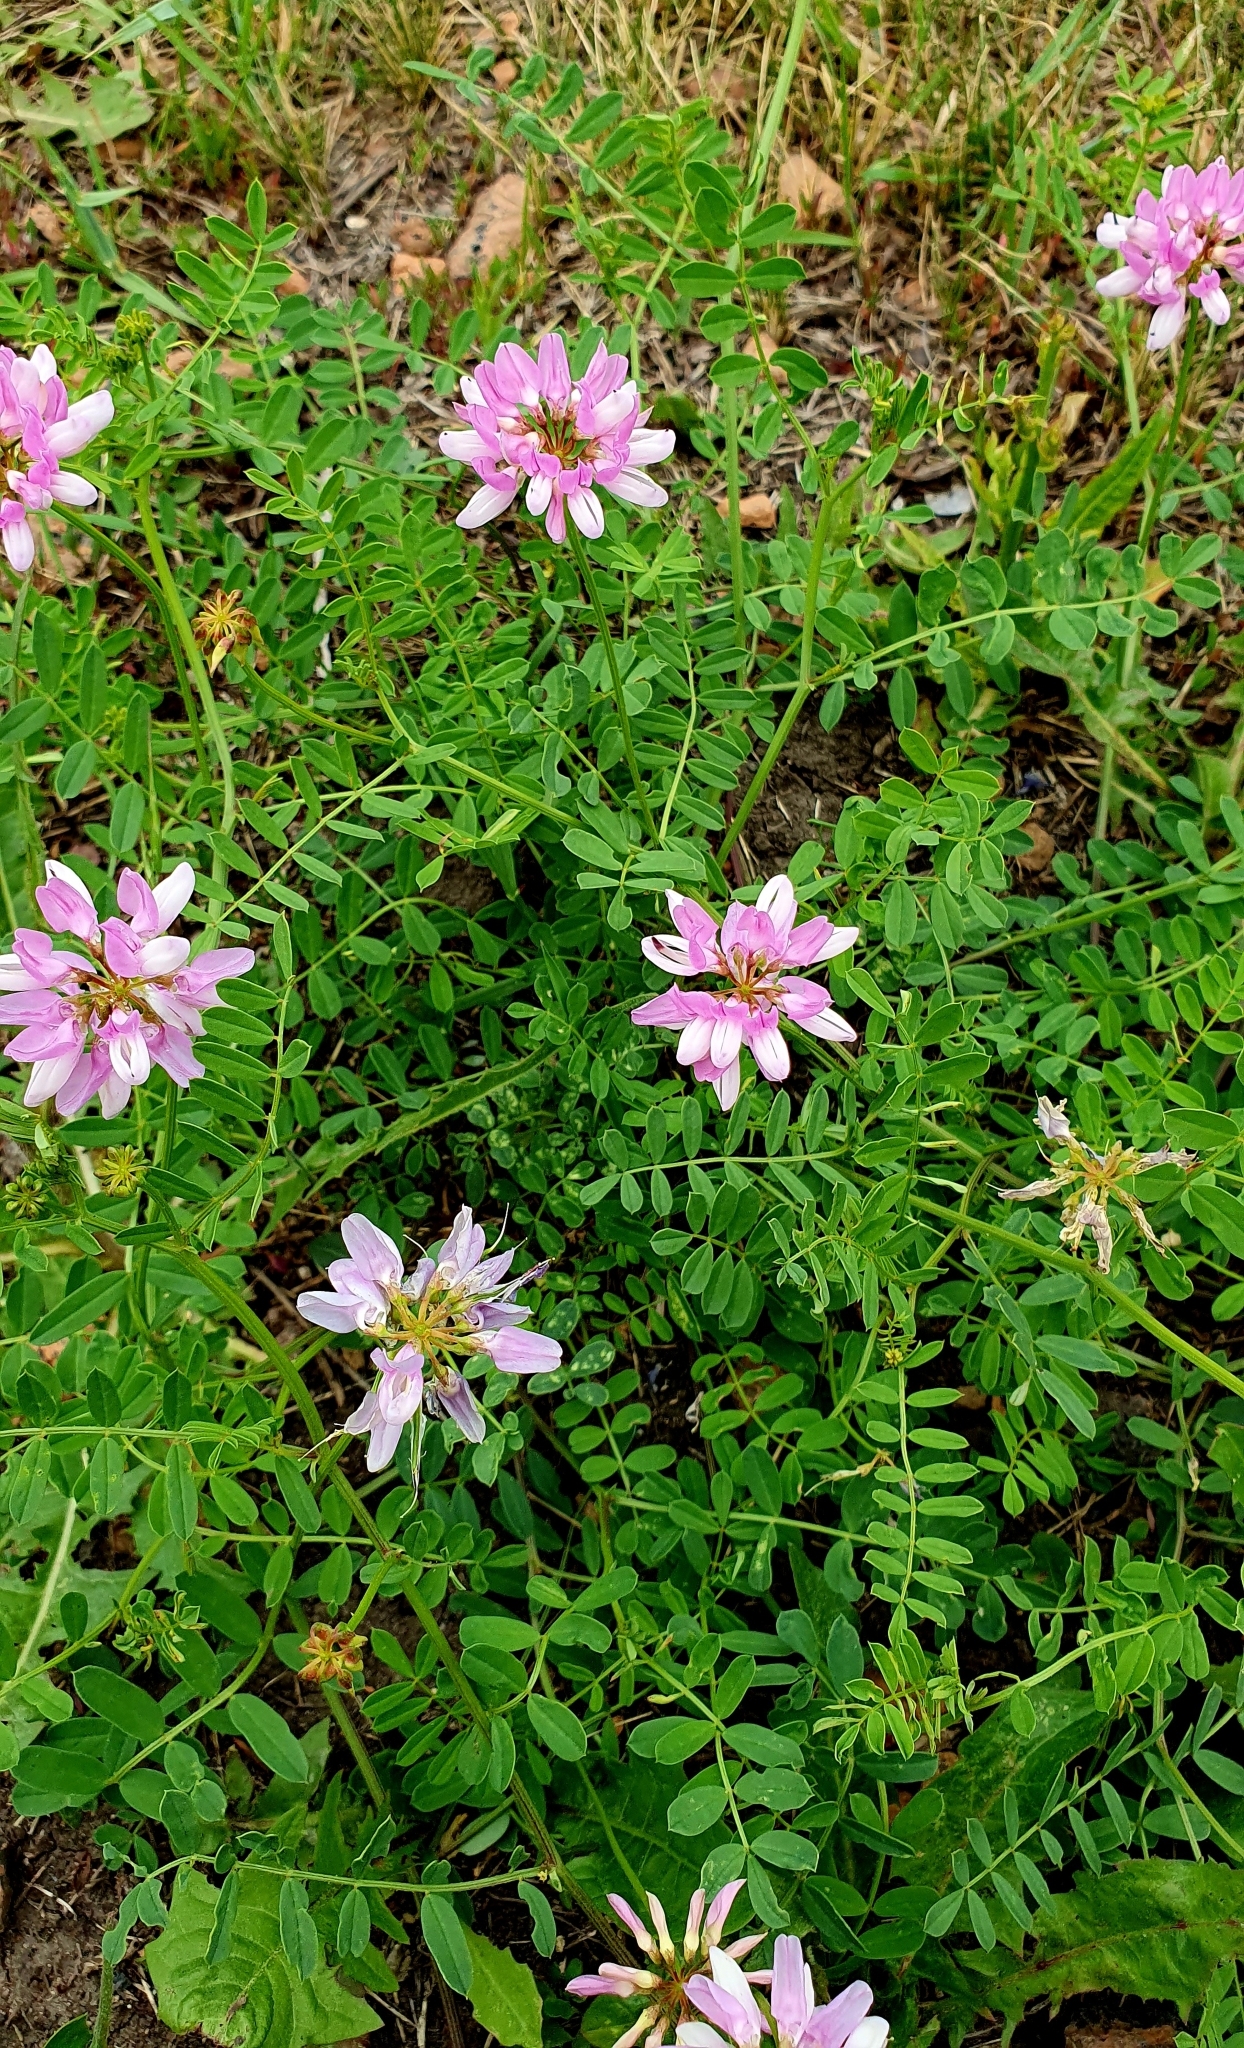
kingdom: Plantae
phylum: Tracheophyta
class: Magnoliopsida
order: Fabales
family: Fabaceae
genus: Coronilla
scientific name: Coronilla varia
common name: Crownvetch
